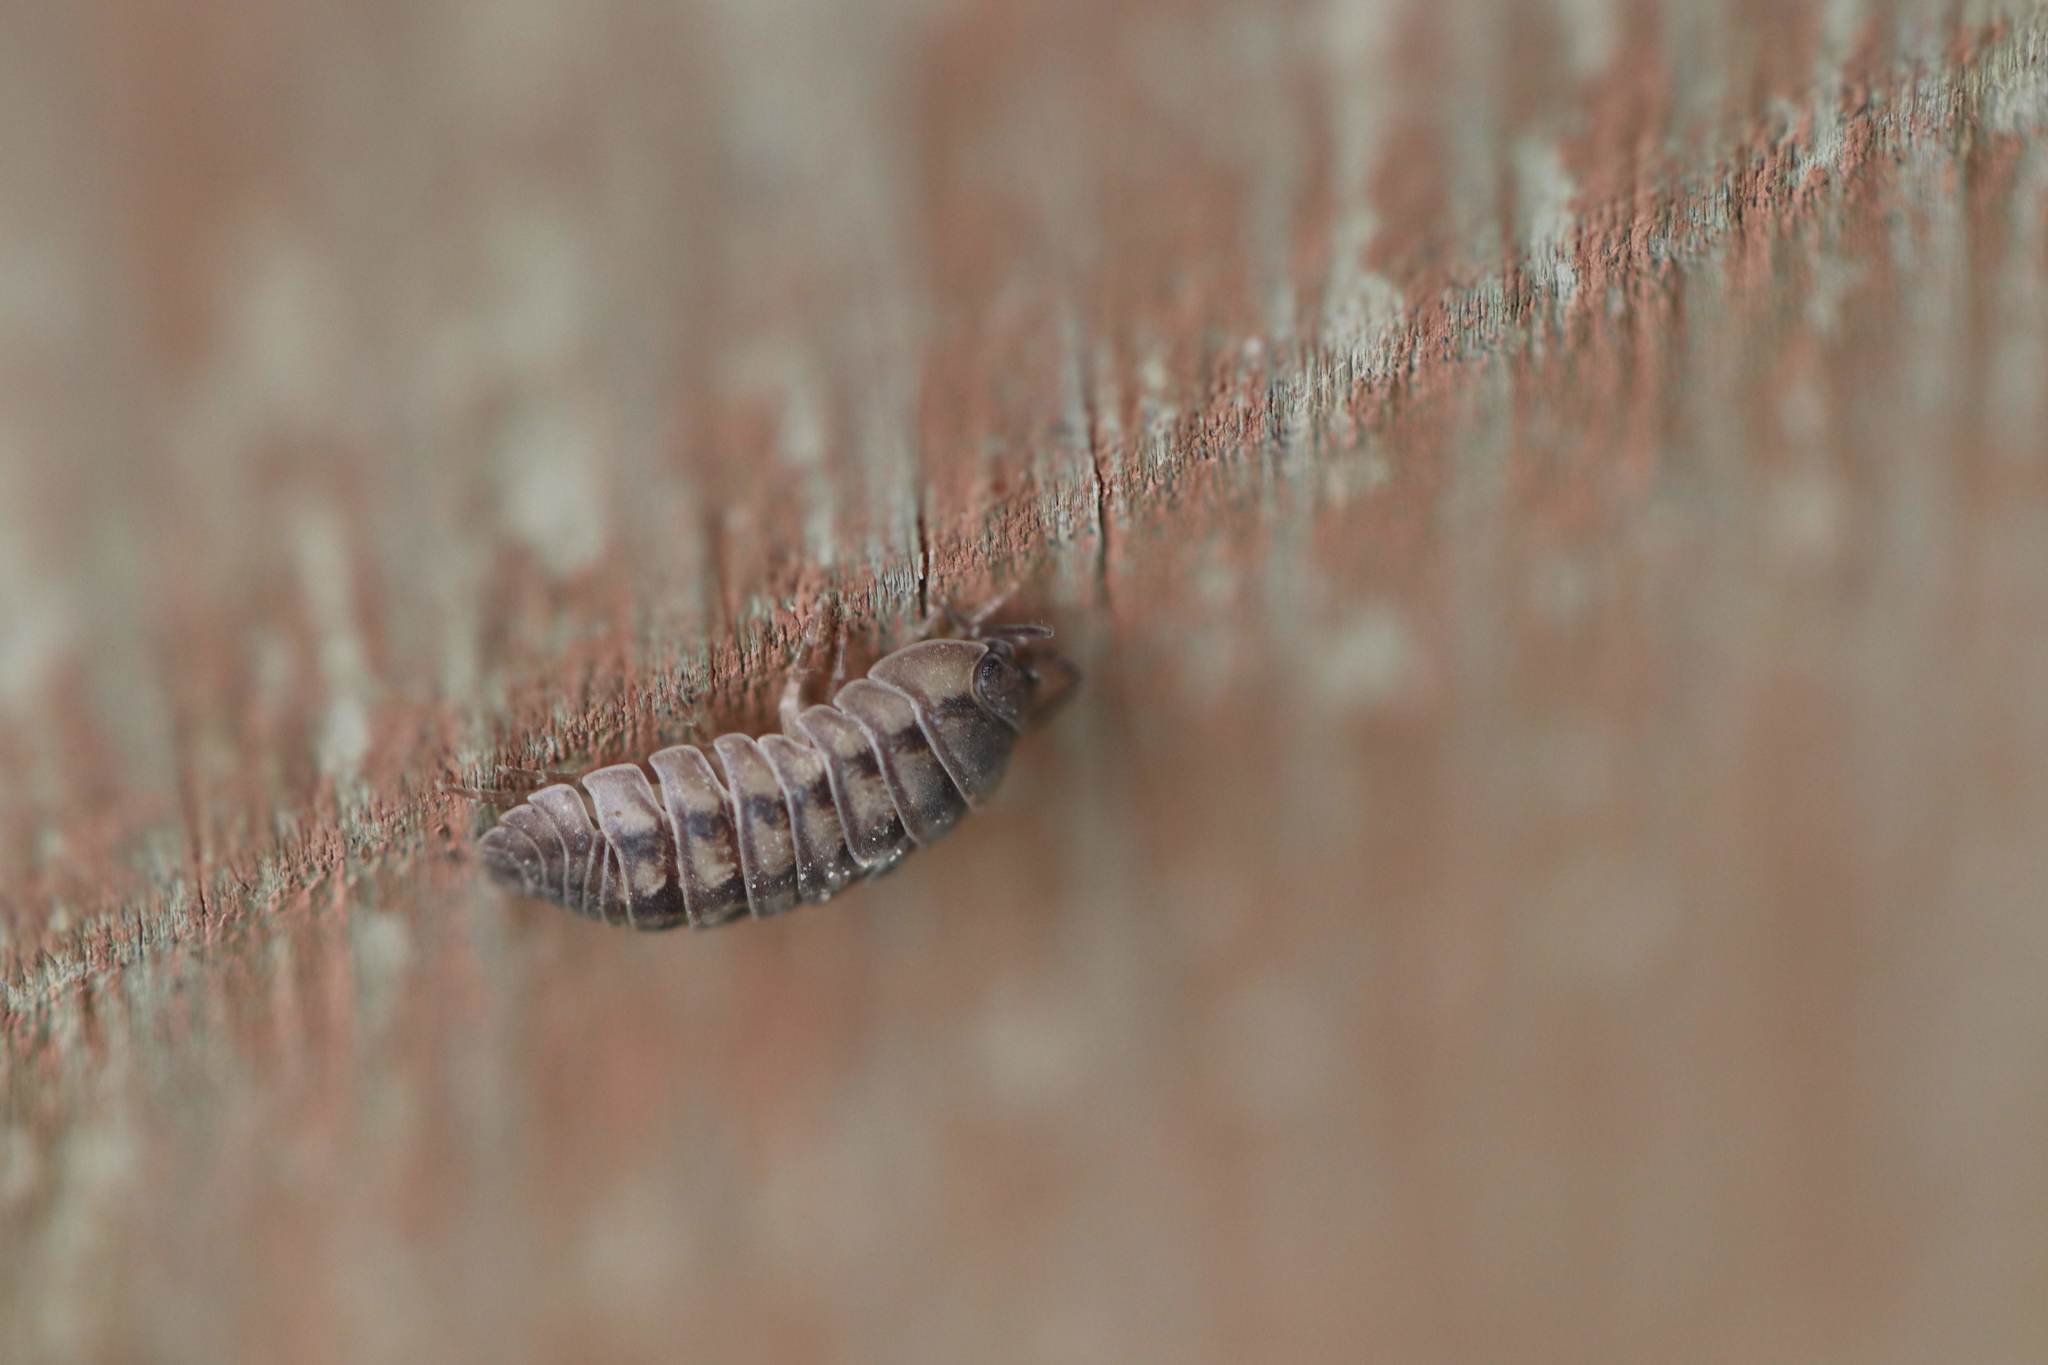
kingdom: Animalia
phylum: Arthropoda
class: Malacostraca
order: Isopoda
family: Armadillidiidae
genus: Armadillidium
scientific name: Armadillidium nasatum
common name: Isopod
